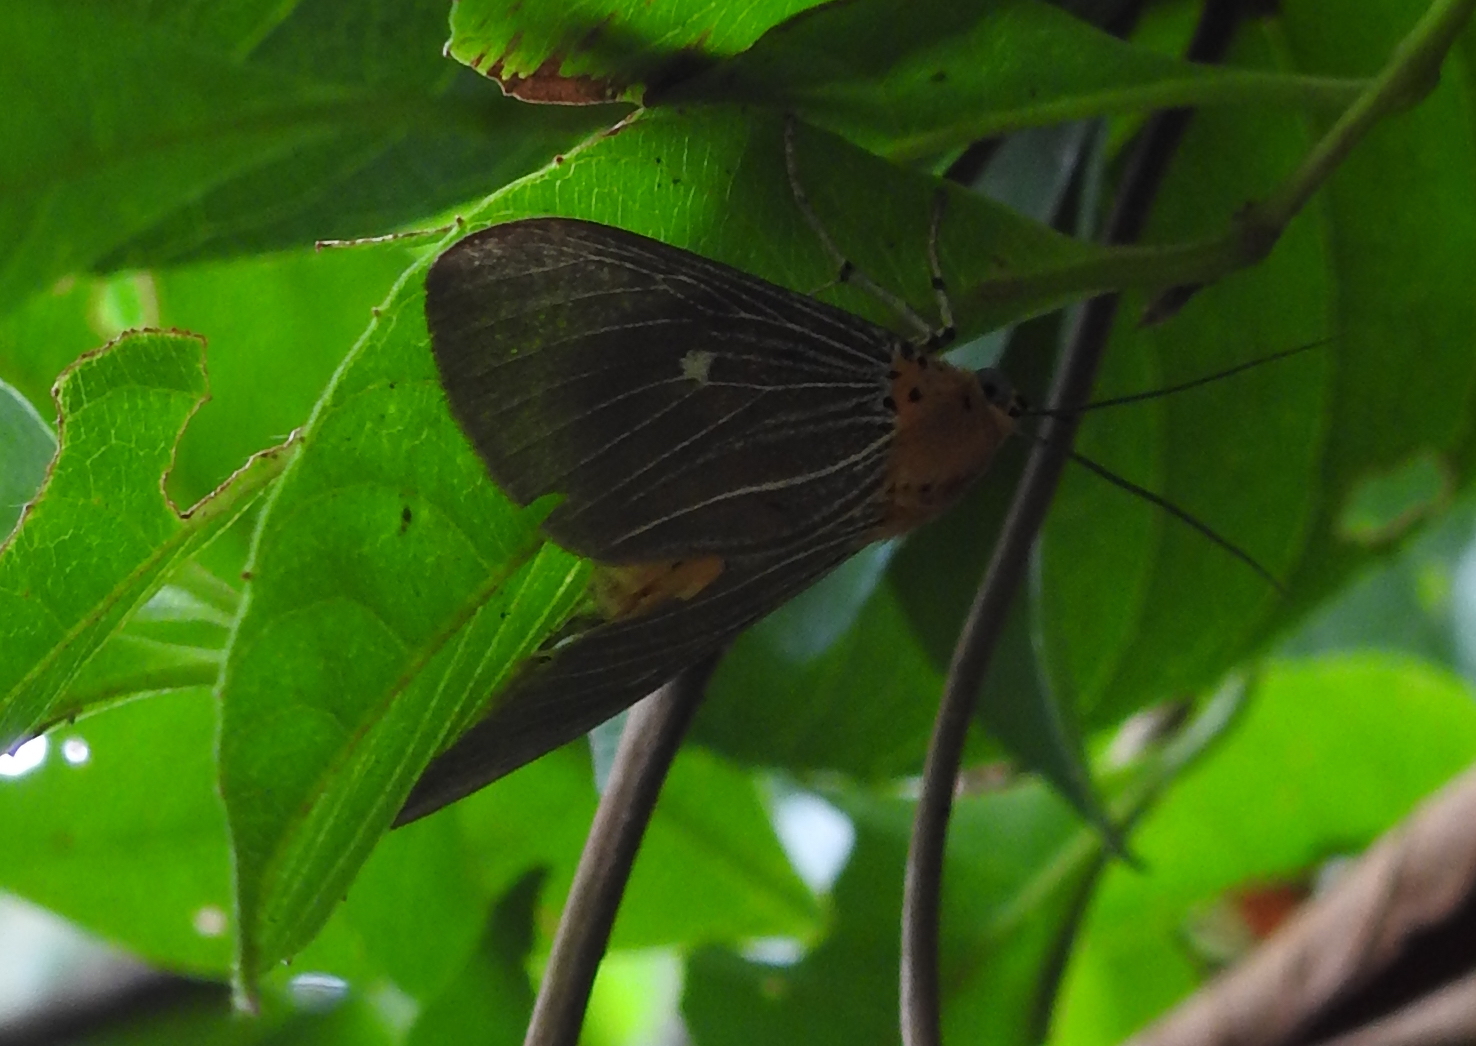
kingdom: Animalia
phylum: Arthropoda
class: Insecta
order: Lepidoptera
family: Erebidae
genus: Asota
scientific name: Asota caricae
